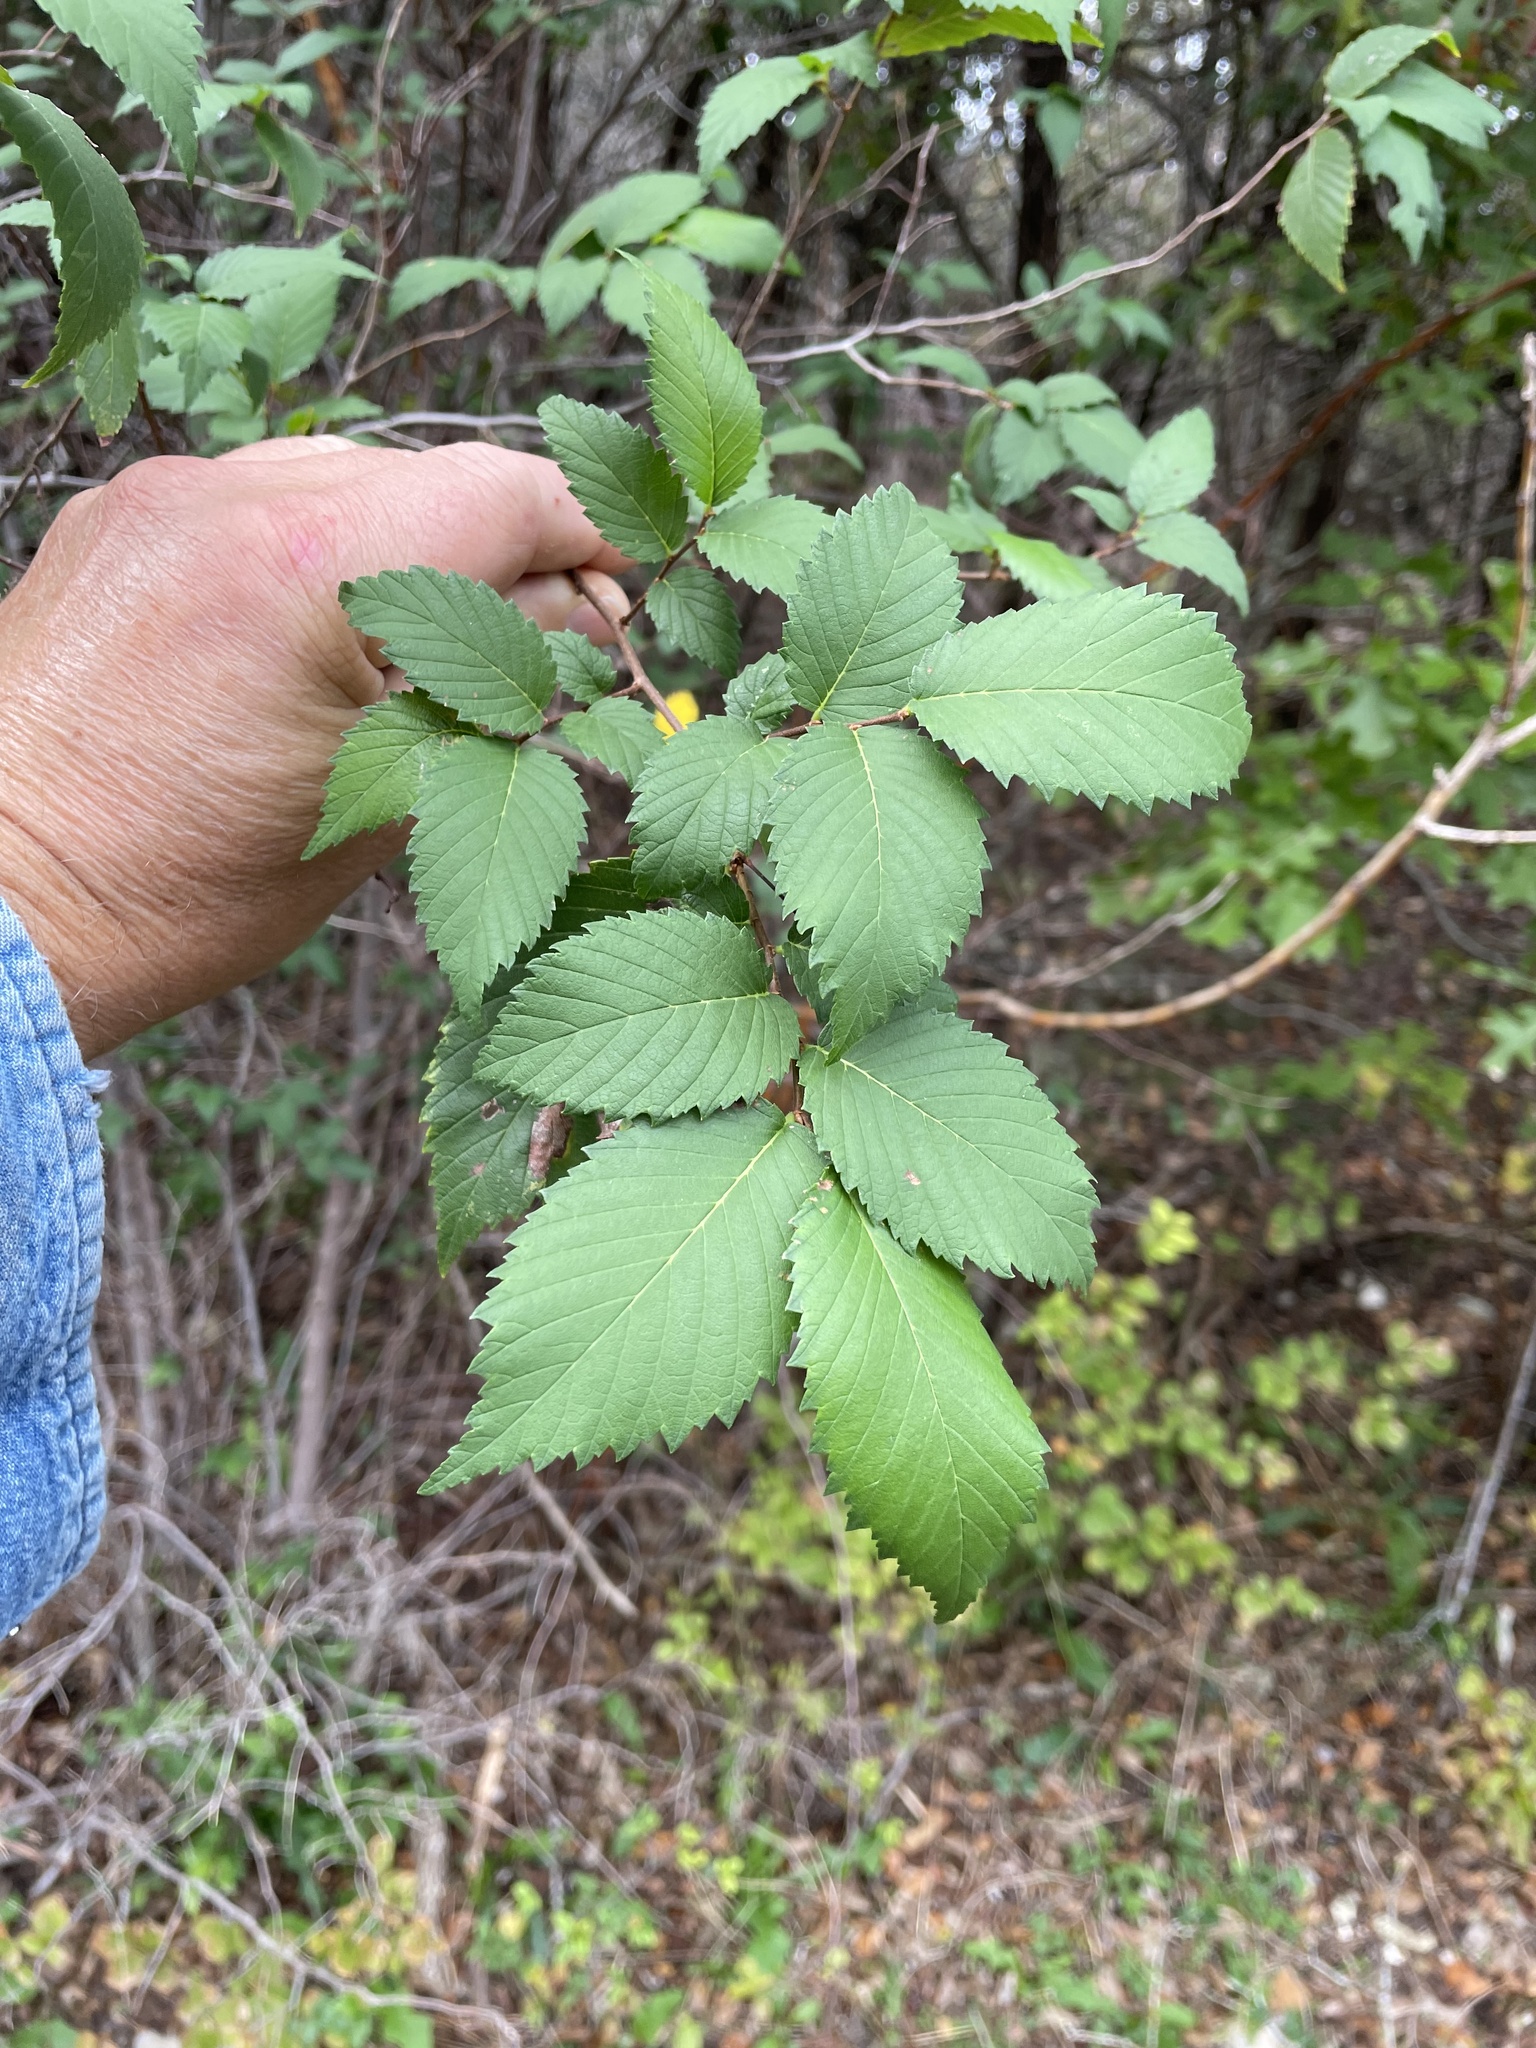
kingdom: Plantae
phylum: Tracheophyta
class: Magnoliopsida
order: Rosales
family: Ulmaceae
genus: Ulmus
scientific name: Ulmus americana
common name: American elm
